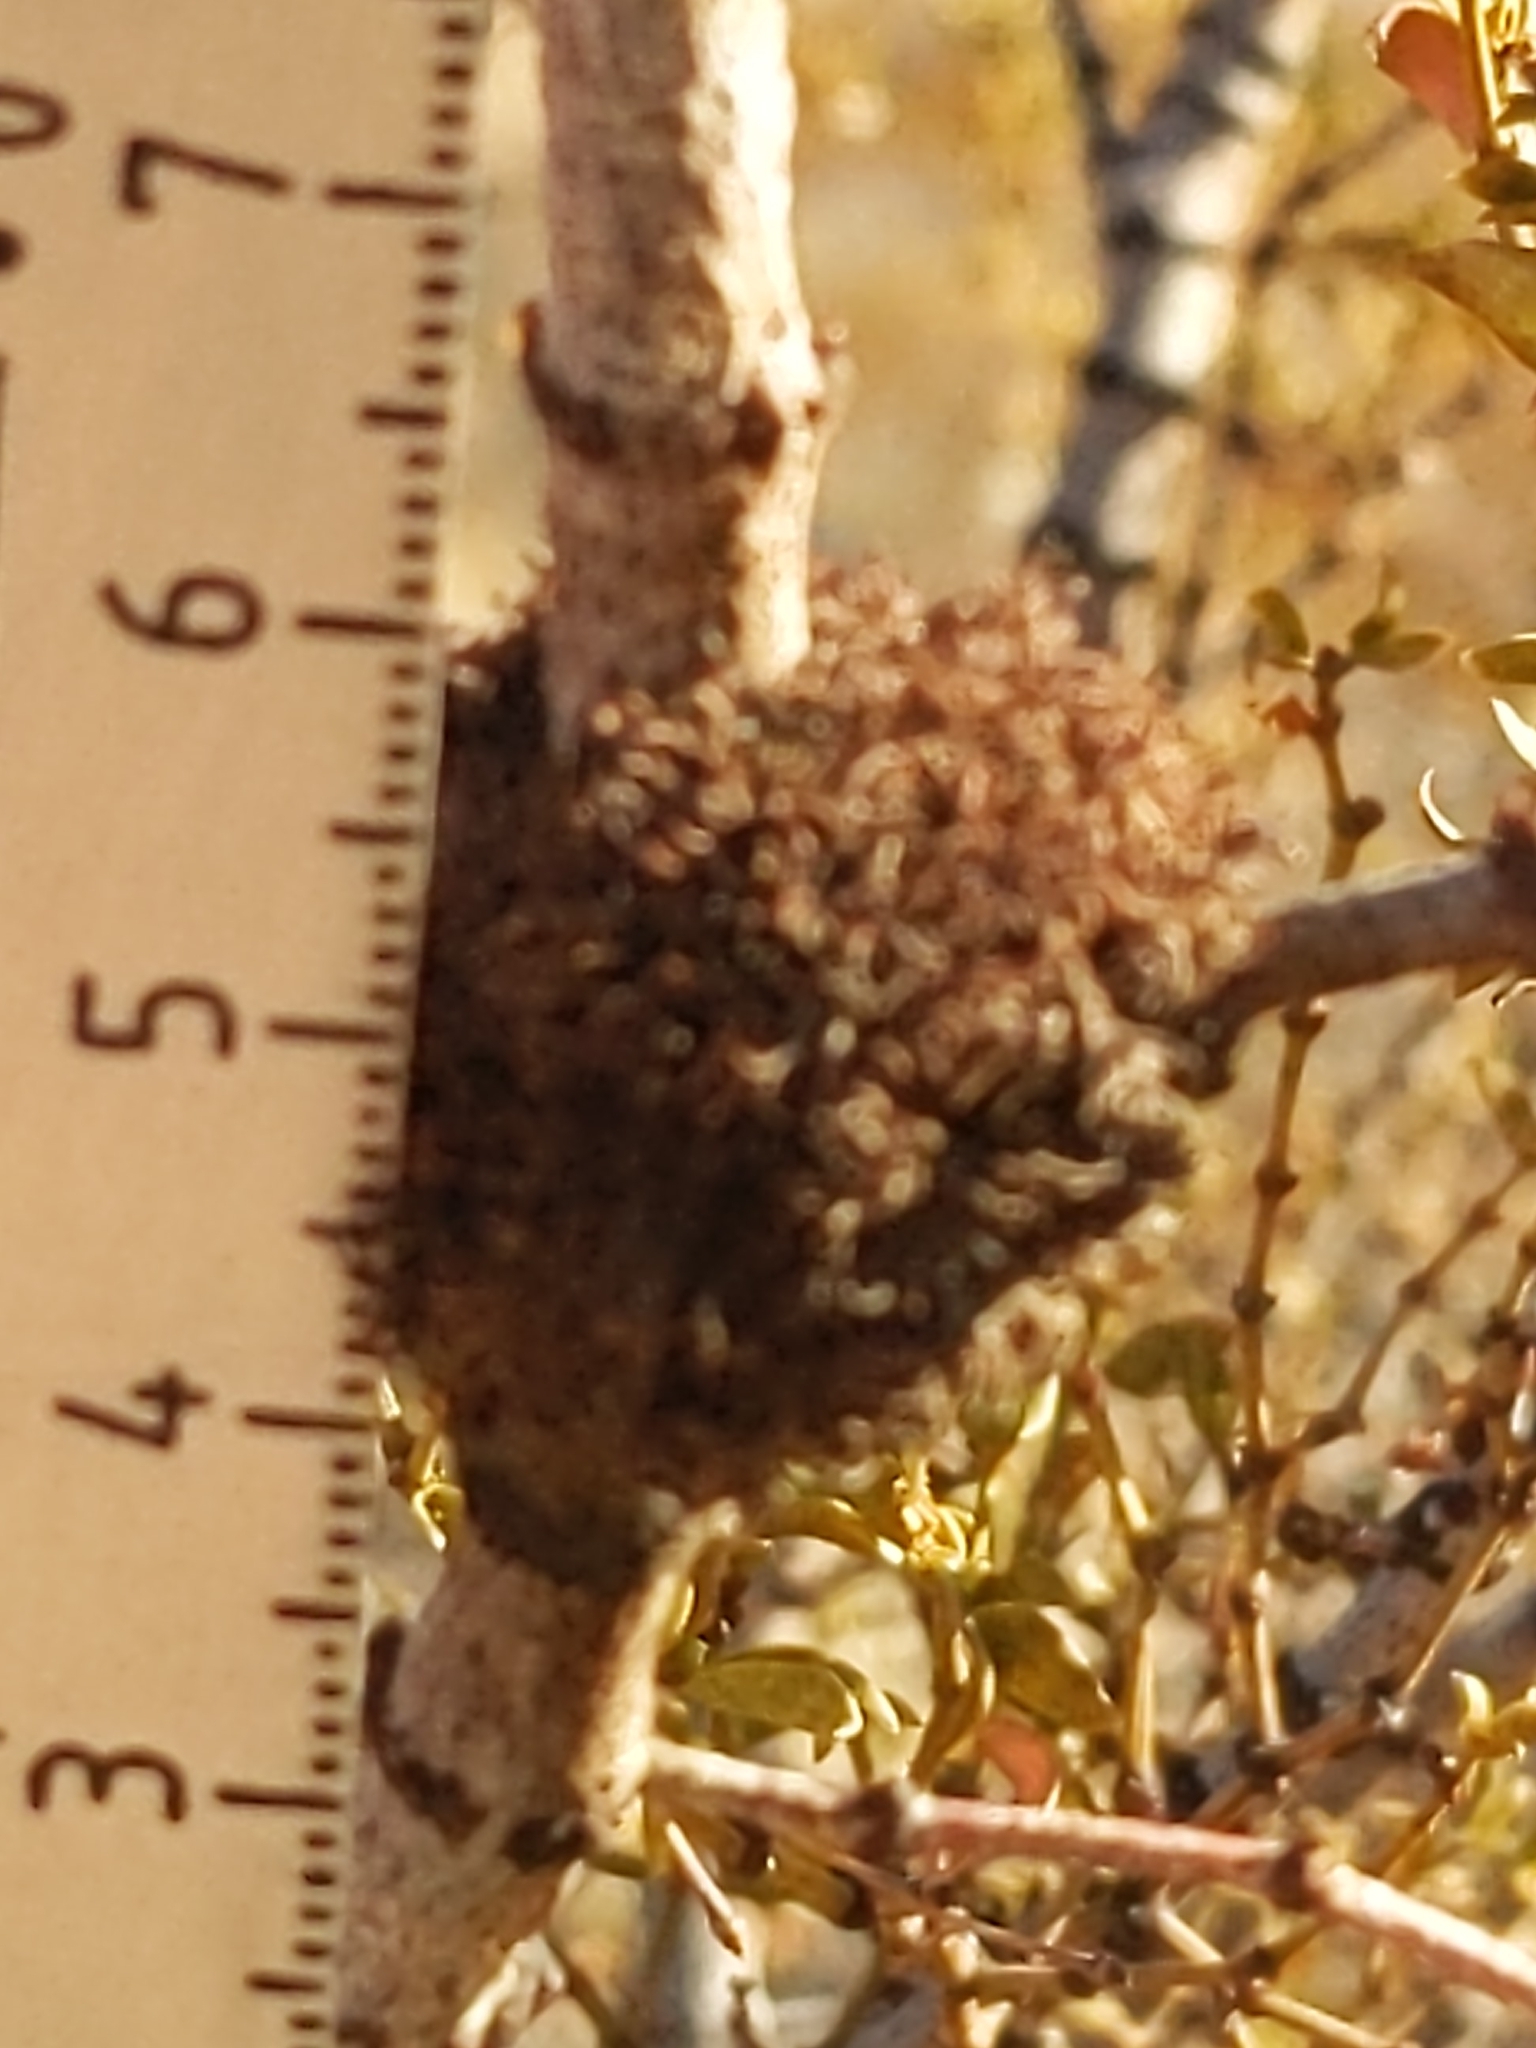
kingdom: Animalia
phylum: Arthropoda
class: Insecta
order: Diptera
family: Cecidomyiidae
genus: Asphondylia
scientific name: Asphondylia auripila
